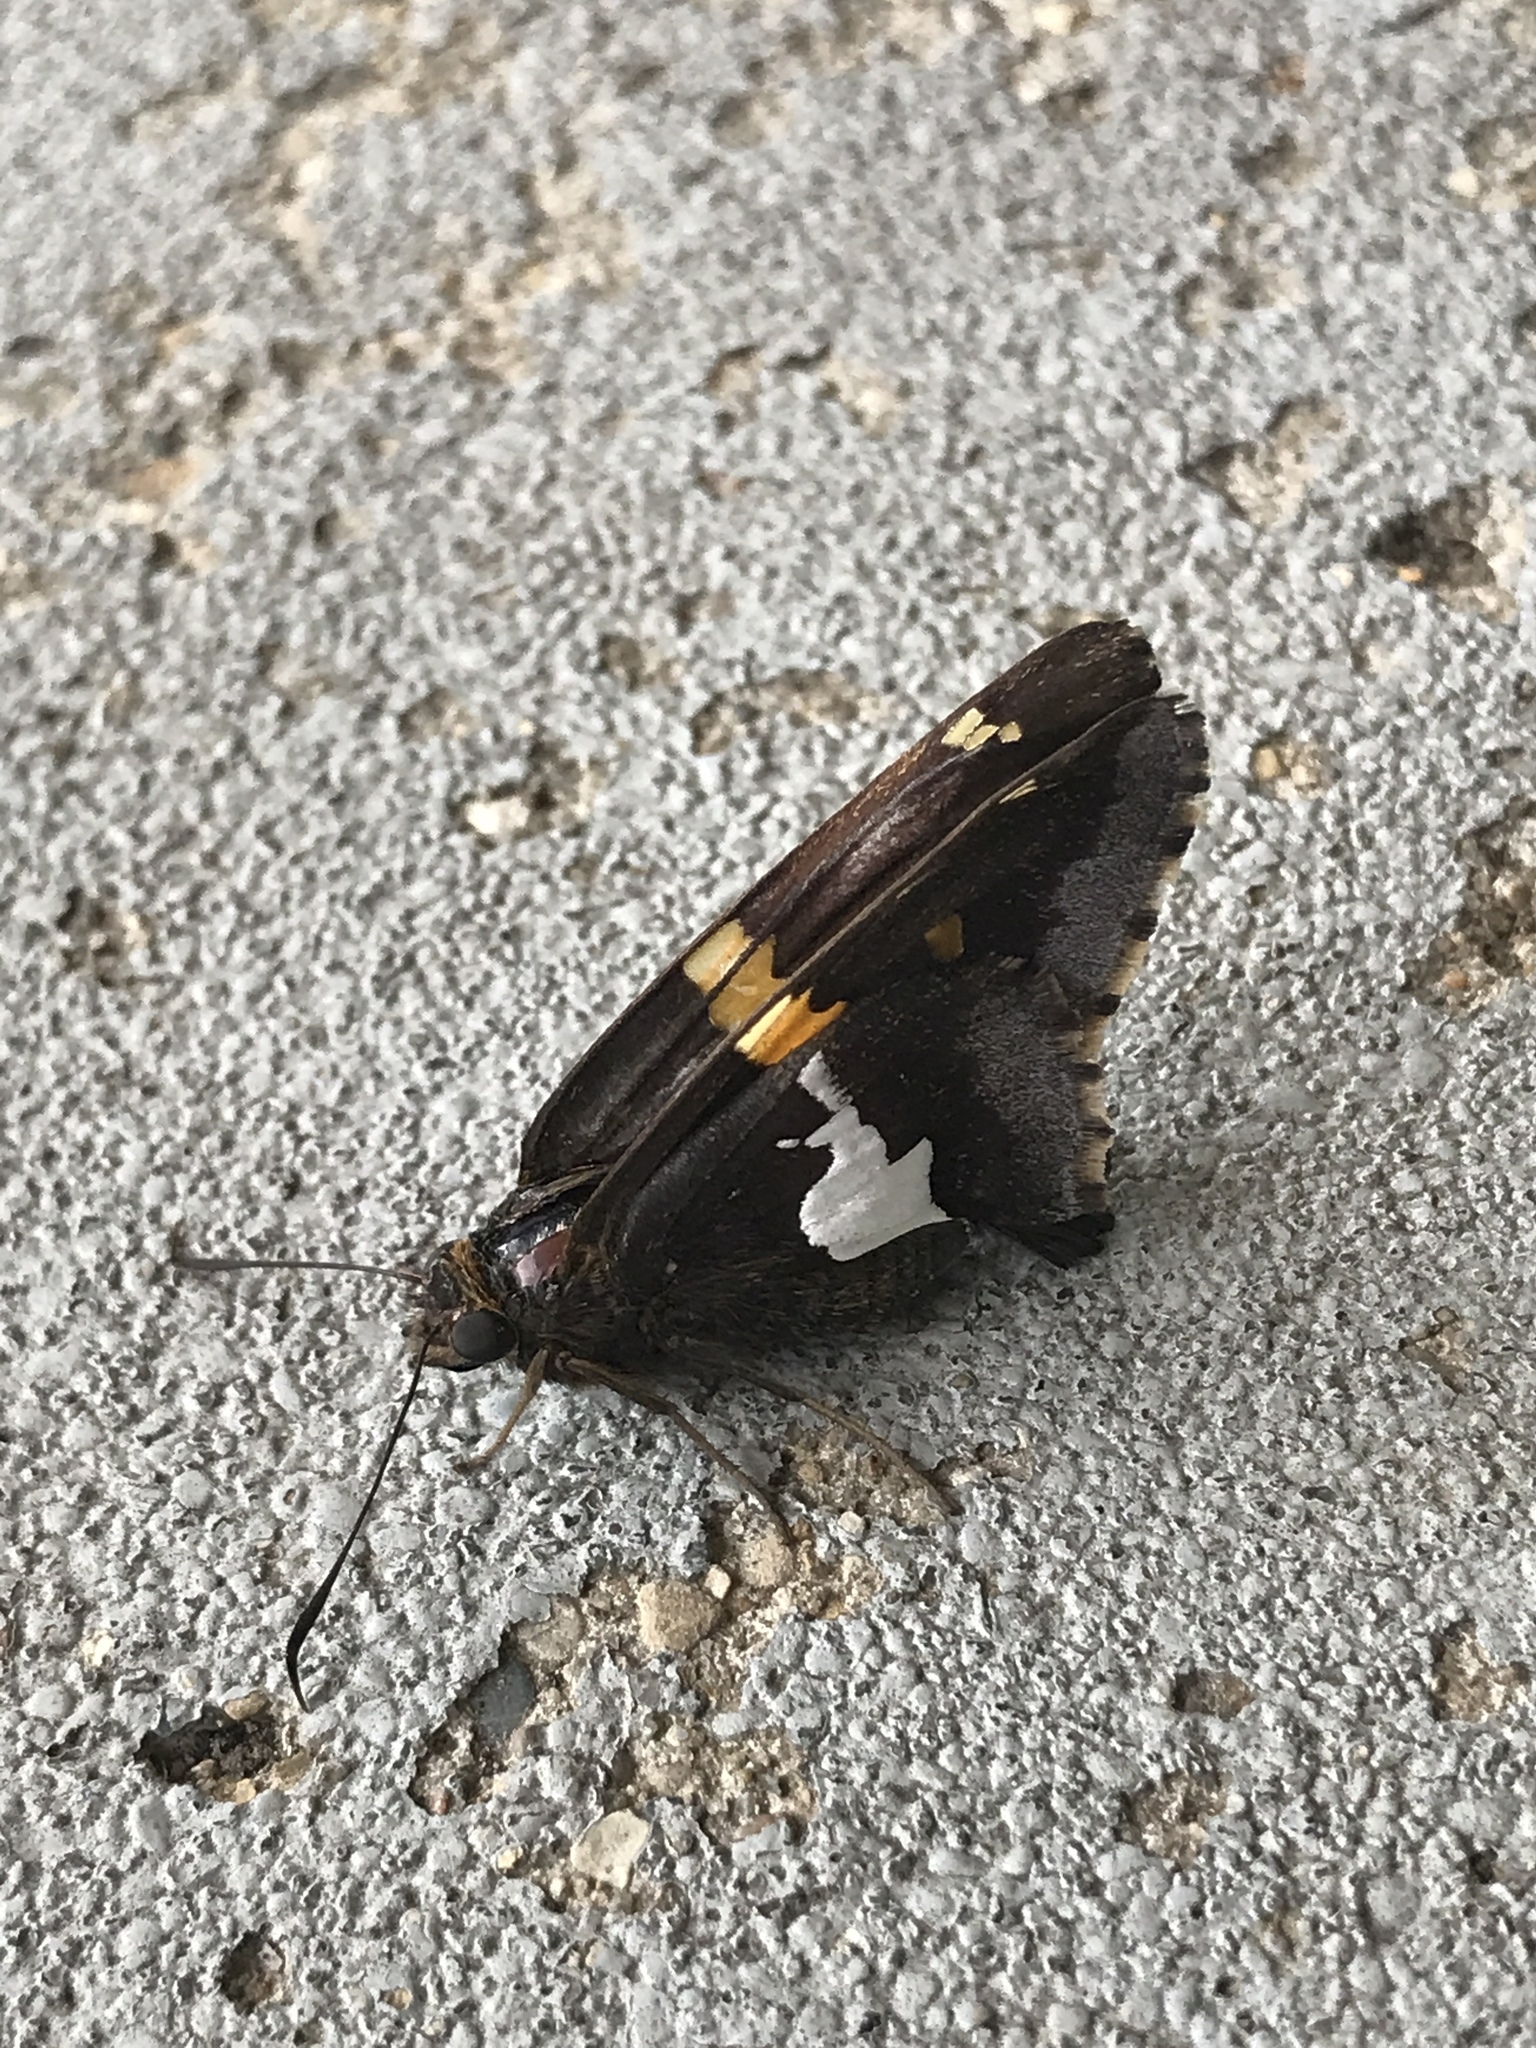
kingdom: Animalia
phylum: Arthropoda
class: Insecta
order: Lepidoptera
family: Hesperiidae
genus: Epargyreus
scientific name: Epargyreus clarus
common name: Silver-spotted skipper
